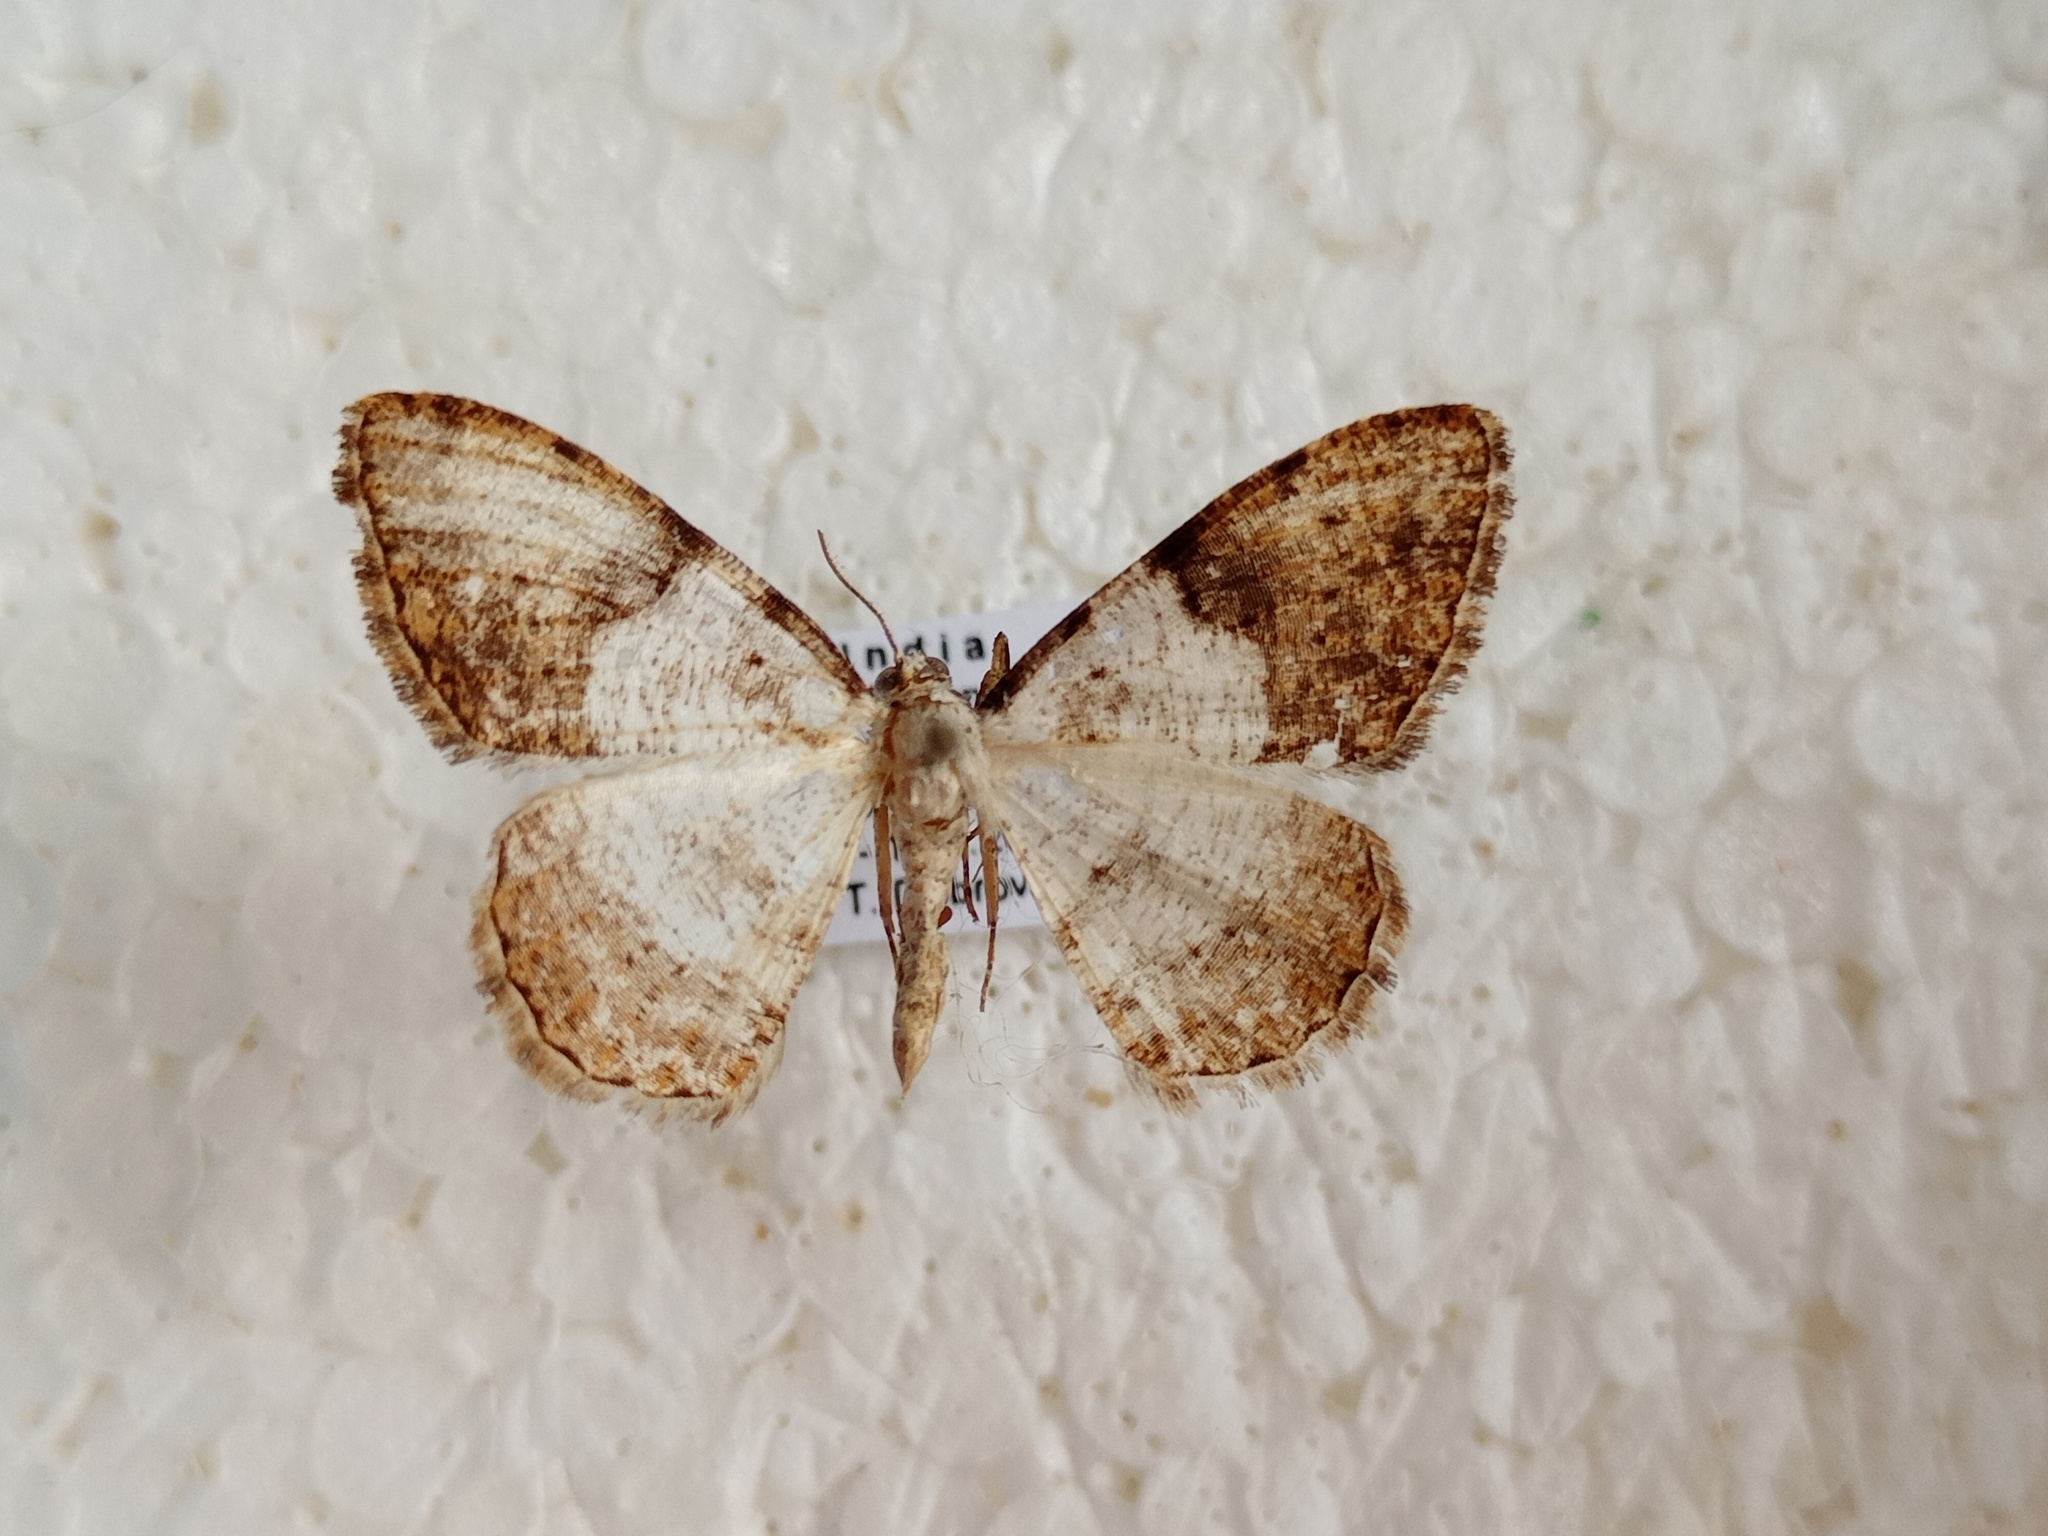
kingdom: Animalia
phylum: Arthropoda
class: Insecta
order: Lepidoptera
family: Geometridae
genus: Myrioblephara
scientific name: Myrioblephara albibasis
